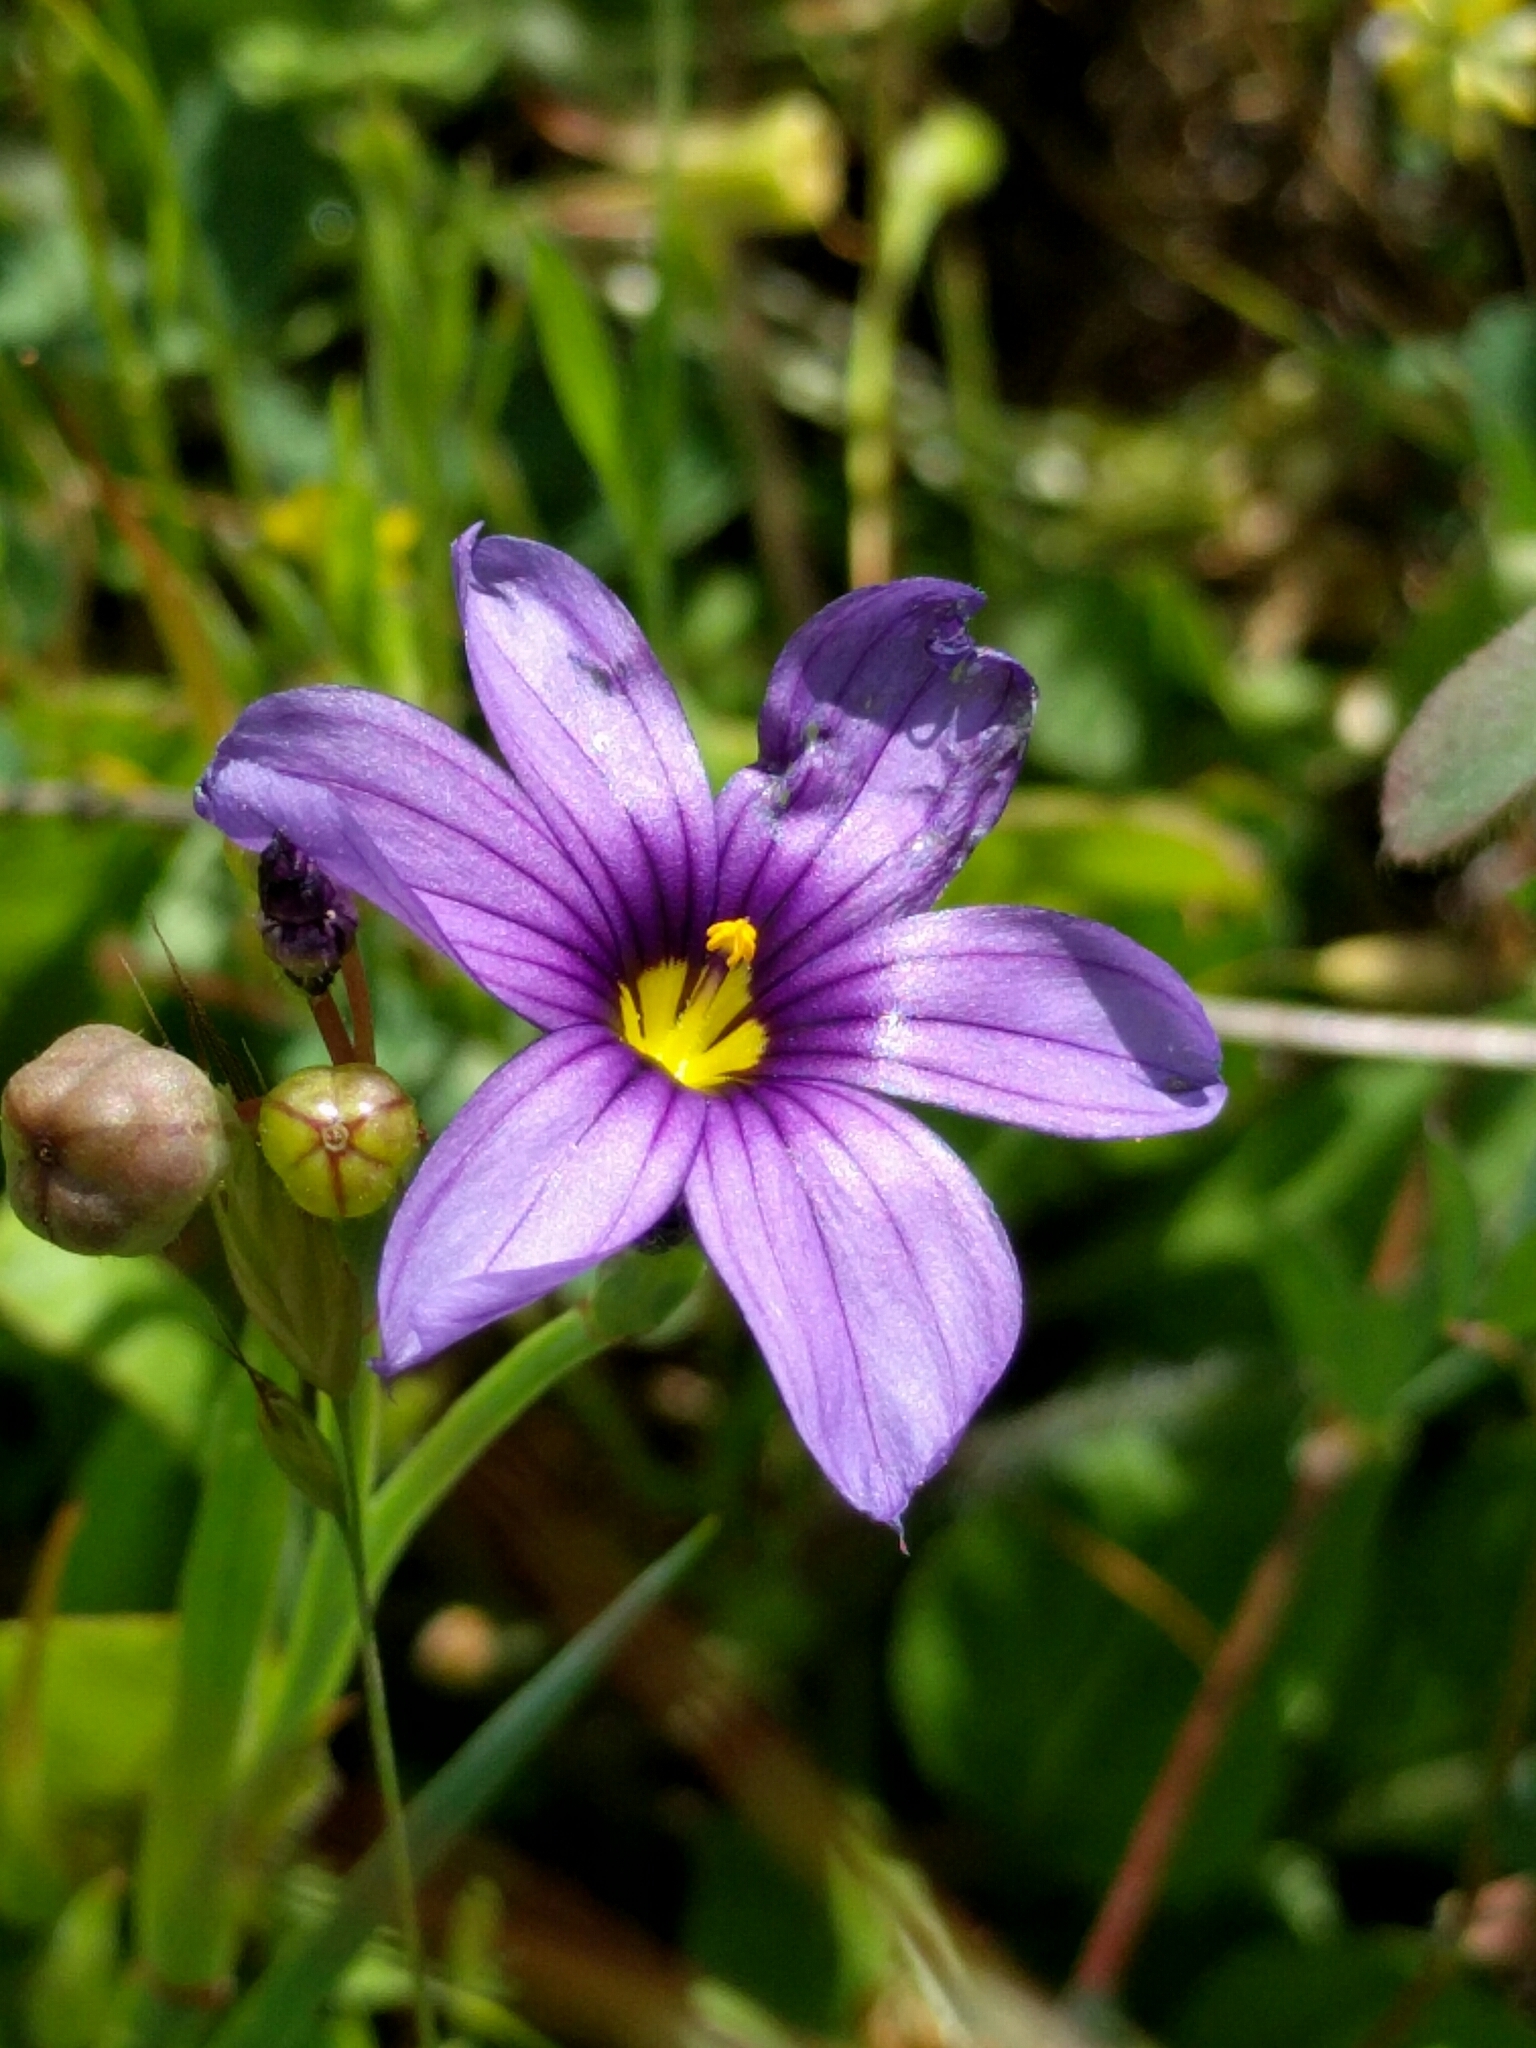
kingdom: Plantae
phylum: Tracheophyta
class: Liliopsida
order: Asparagales
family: Iridaceae
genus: Sisyrinchium
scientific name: Sisyrinchium bellum
